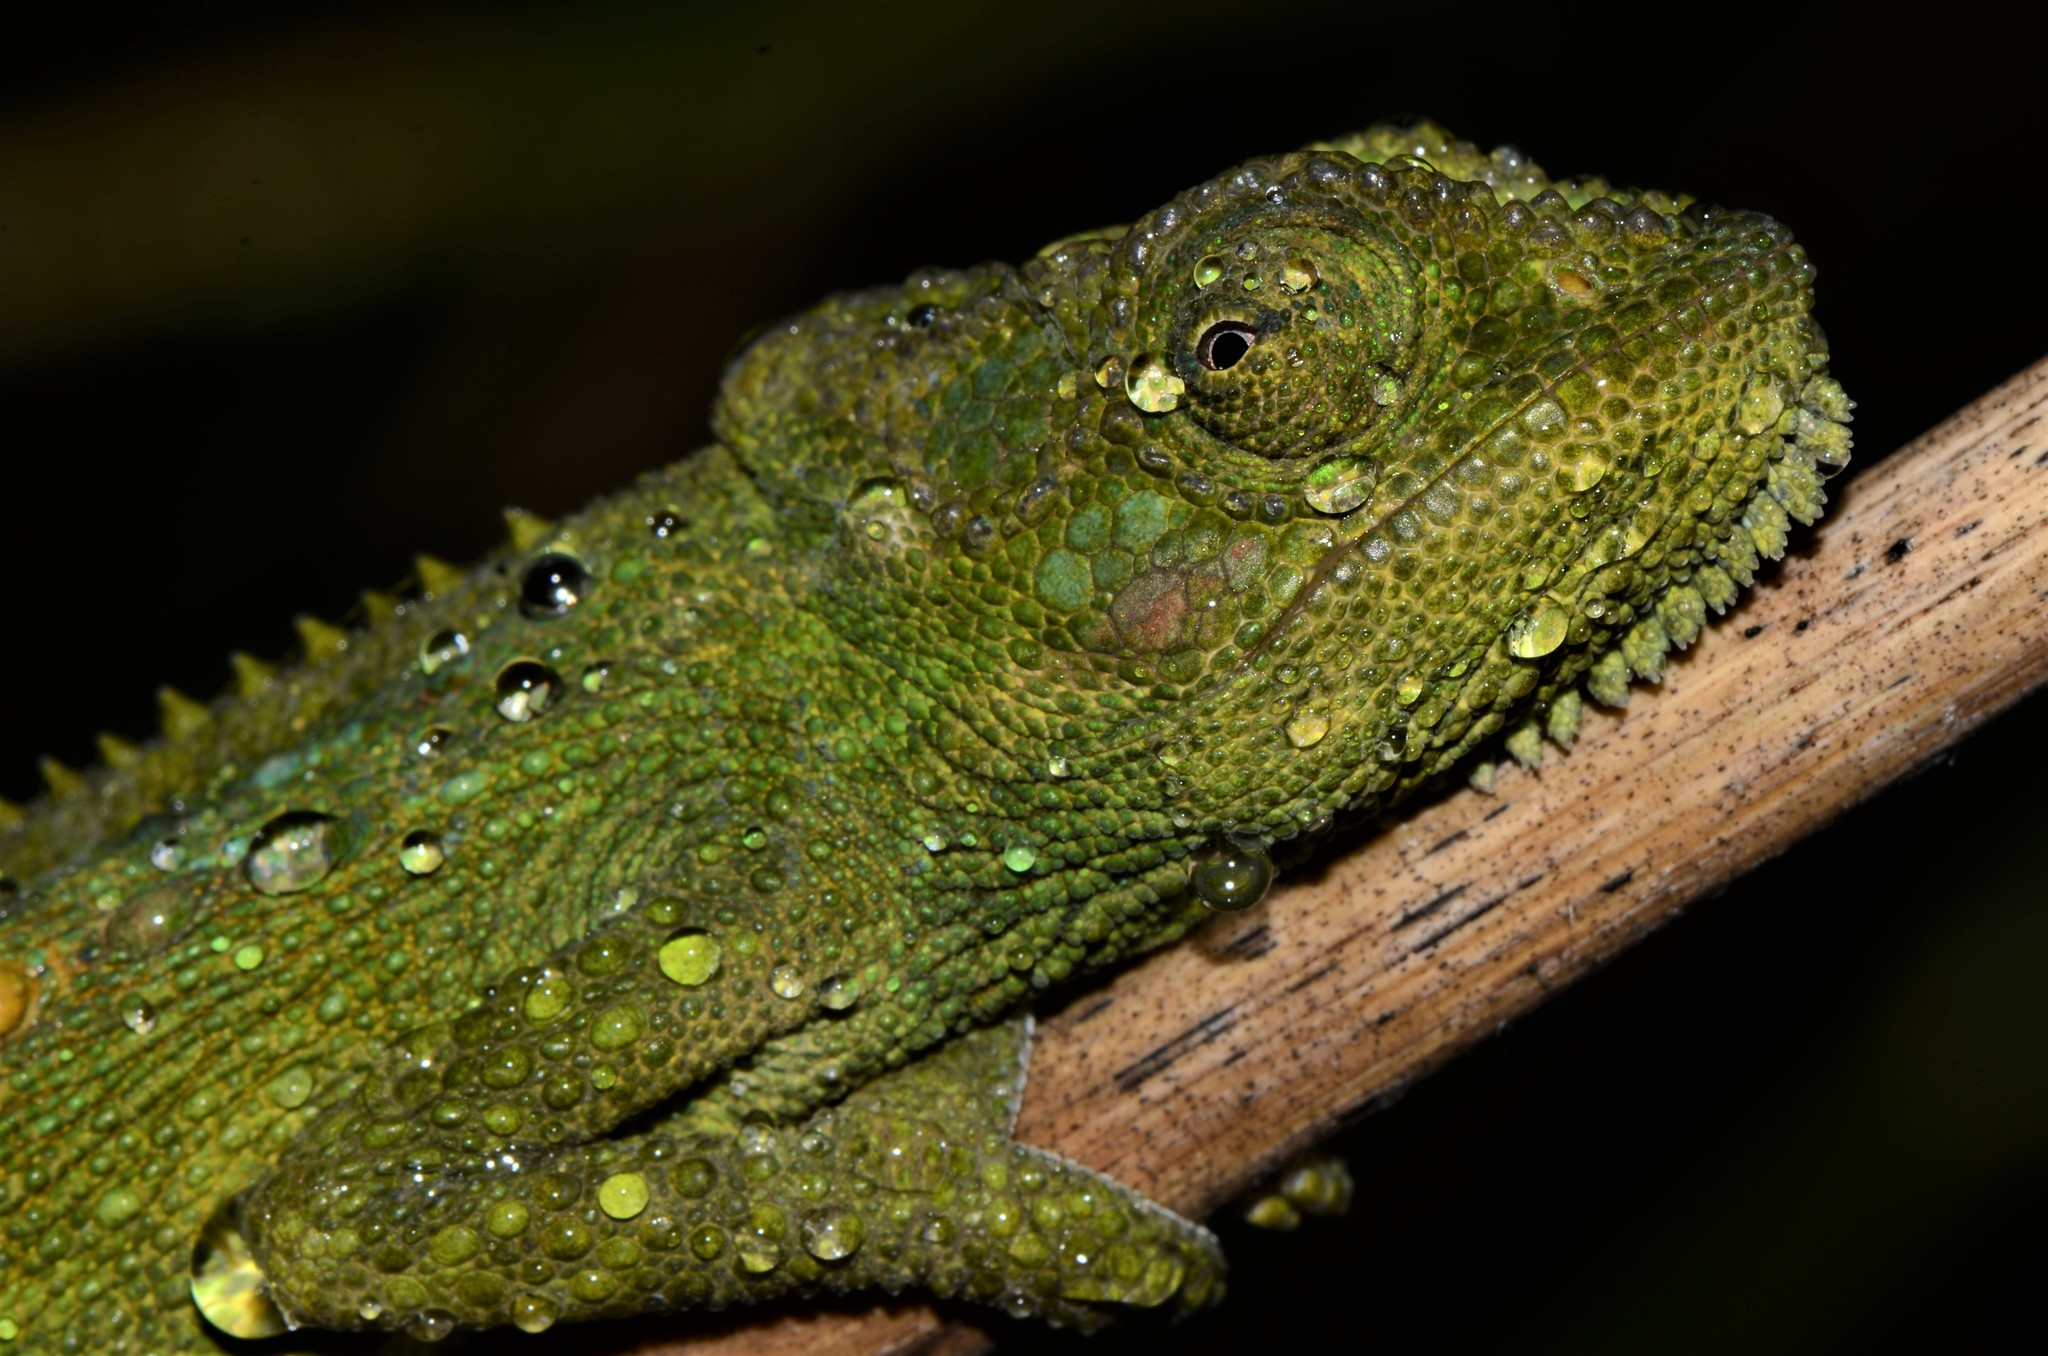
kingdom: Animalia
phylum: Chordata
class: Squamata
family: Chamaeleonidae
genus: Bradypodion
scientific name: Bradypodion pumilum
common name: Cape dwarf chameleon
